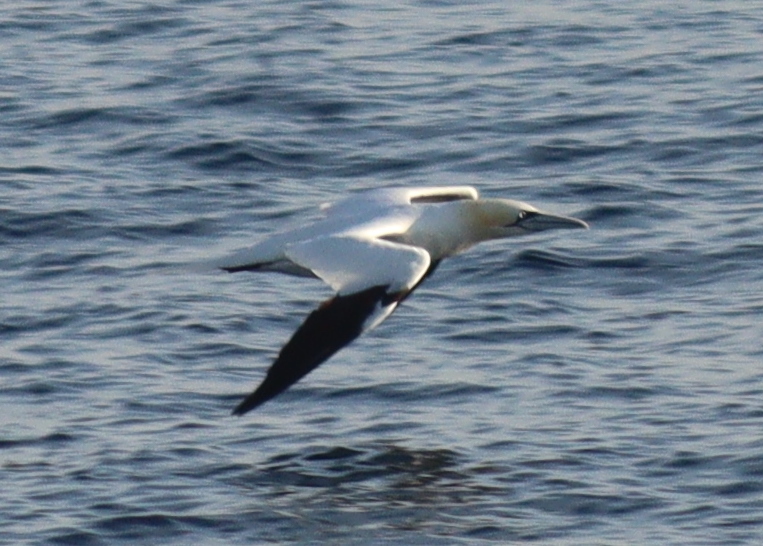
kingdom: Animalia
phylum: Chordata
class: Aves
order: Suliformes
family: Sulidae
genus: Morus
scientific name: Morus bassanus
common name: Northern gannet
